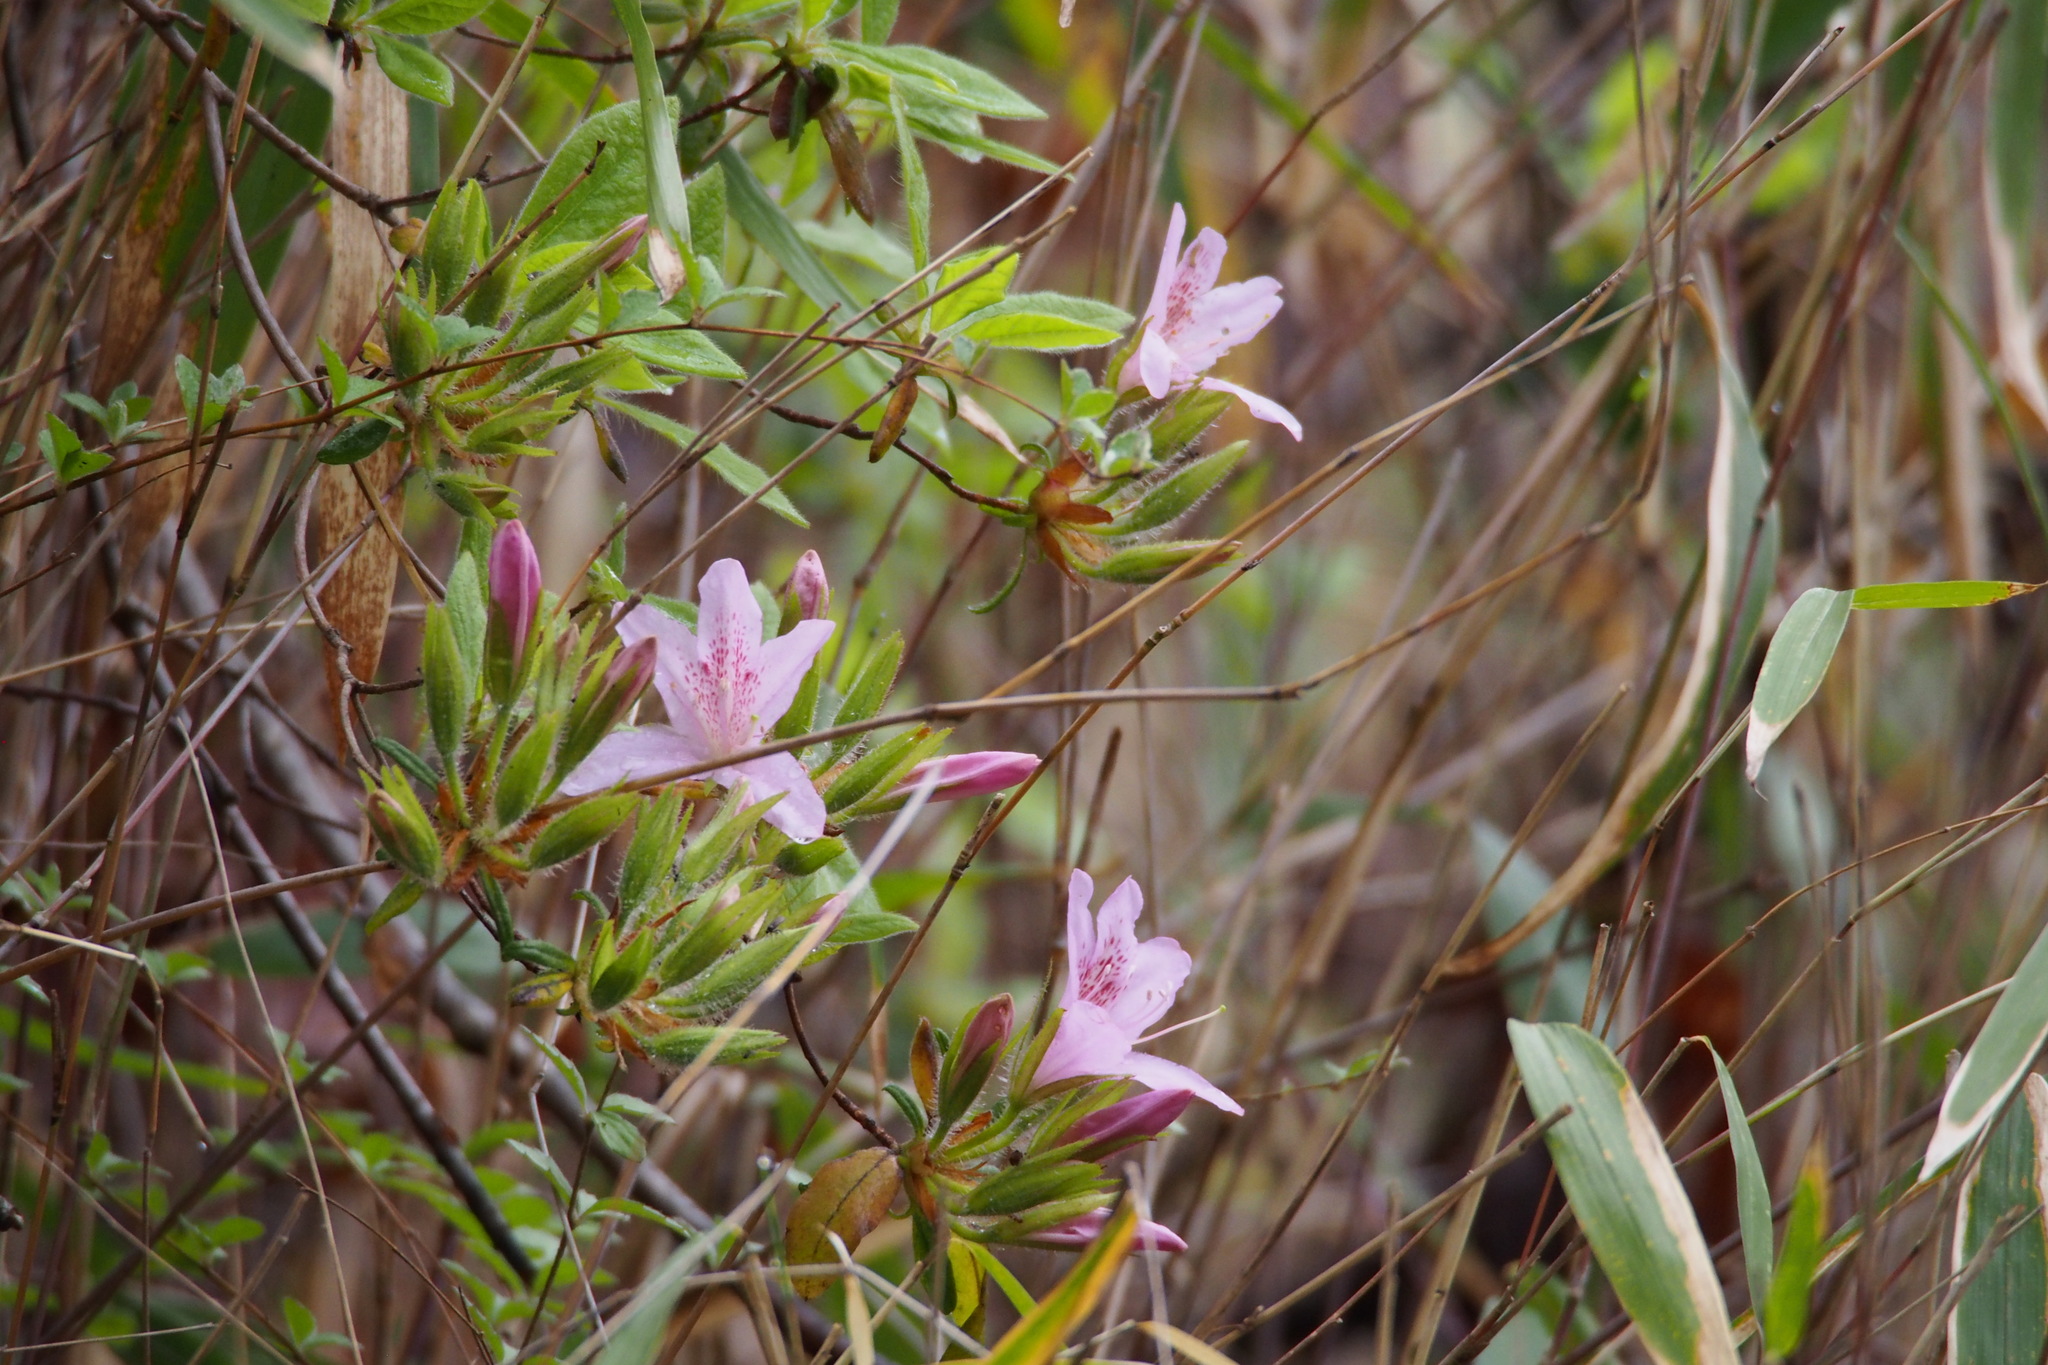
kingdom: Plantae
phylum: Tracheophyta
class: Magnoliopsida
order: Ericales
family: Ericaceae
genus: Rhododendron
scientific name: Rhododendron stenopetalum
